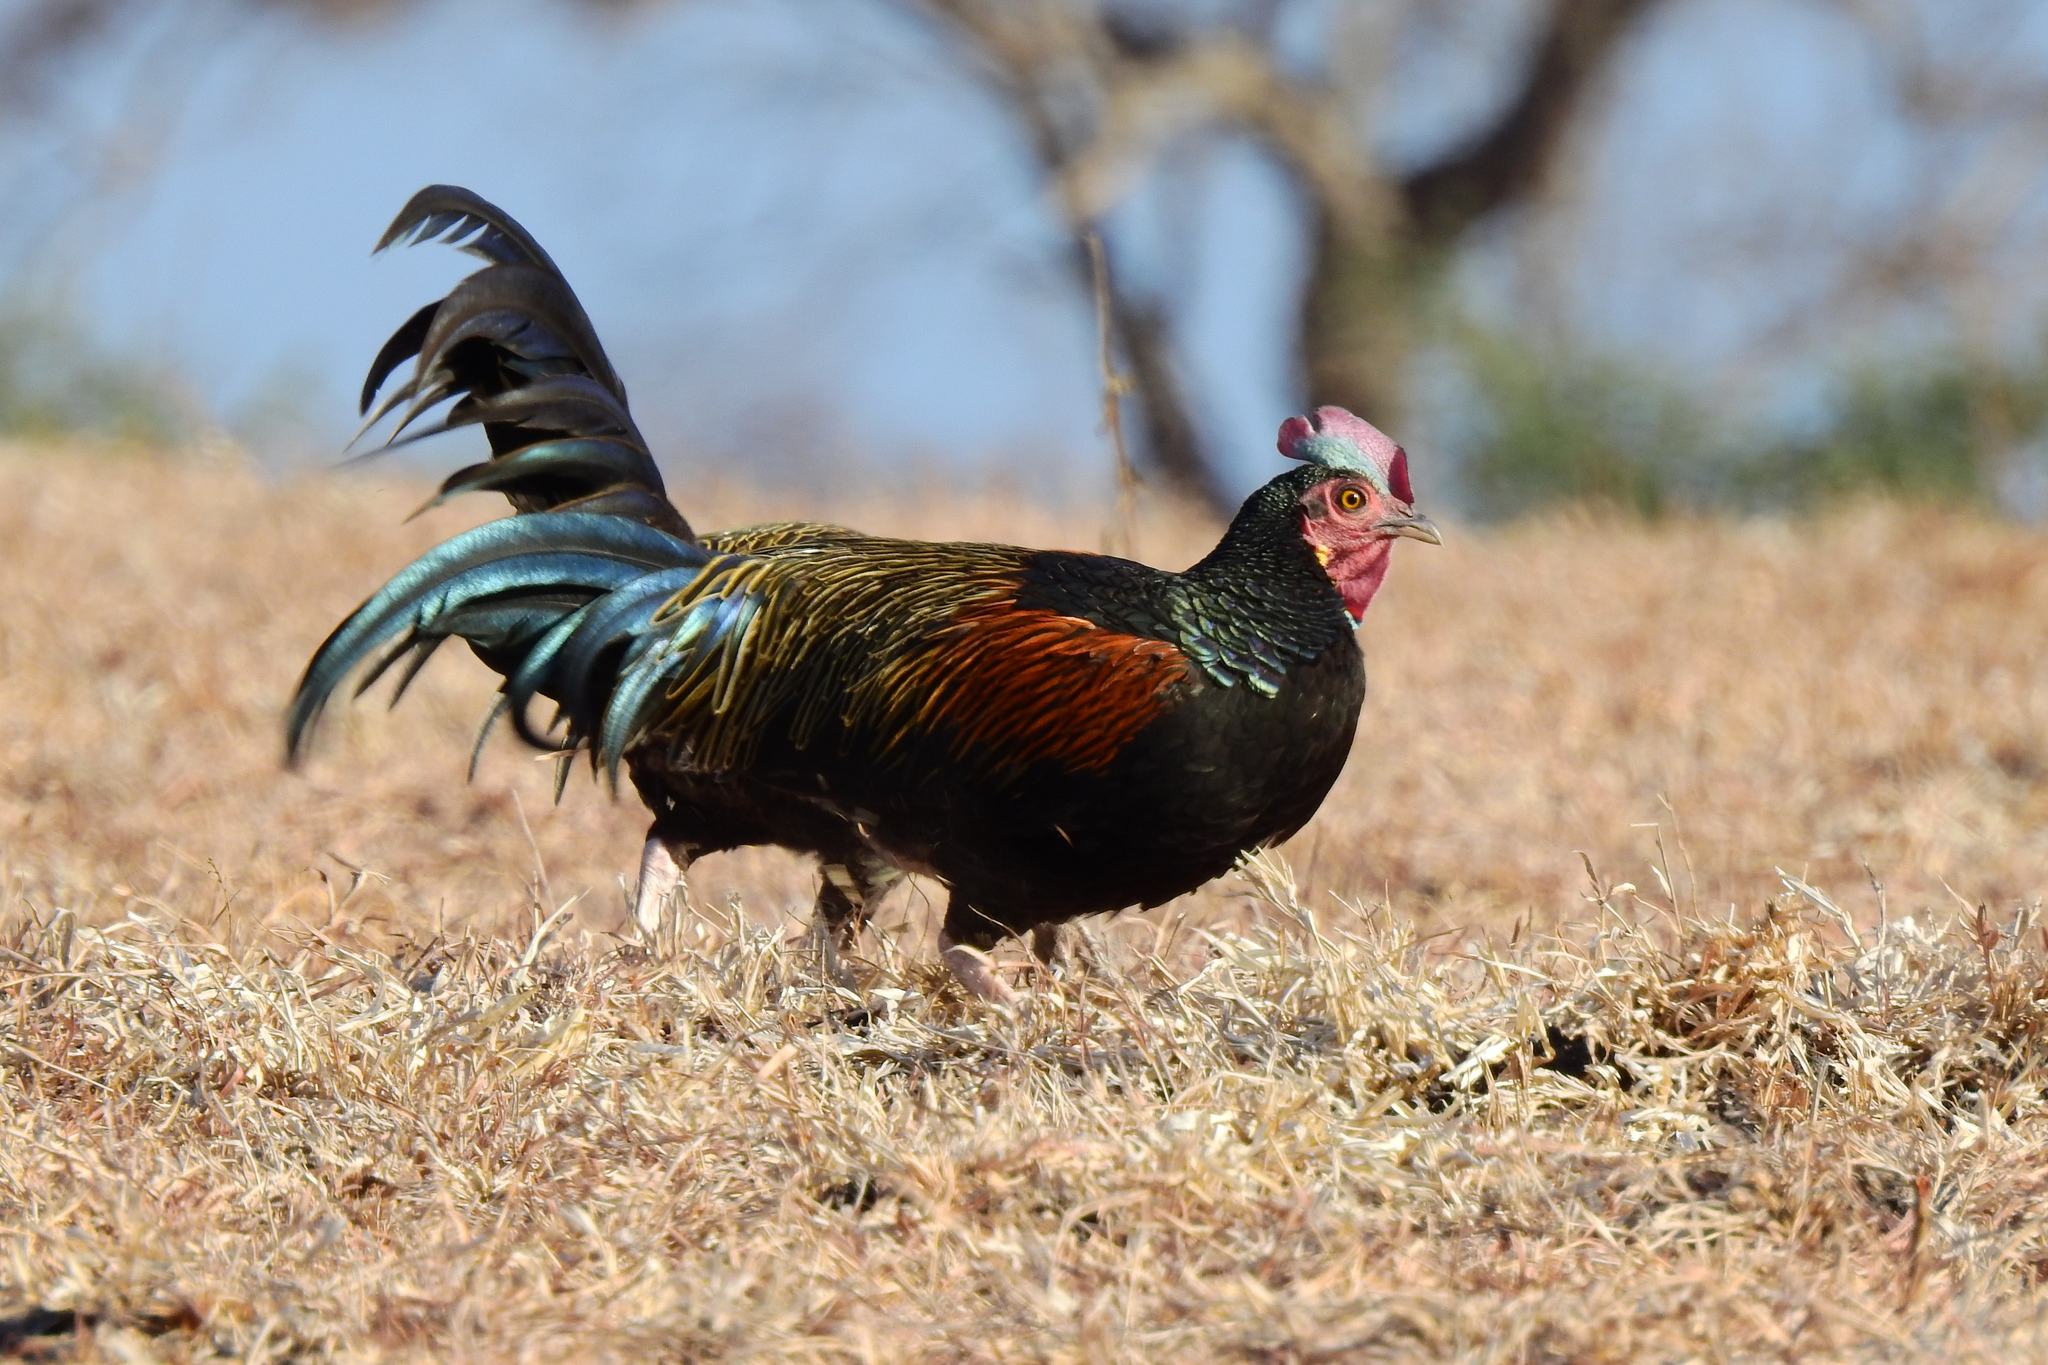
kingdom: Animalia
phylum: Chordata
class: Aves
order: Galliformes
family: Phasianidae
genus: Gallus
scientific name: Gallus varius
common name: Green junglefowl
